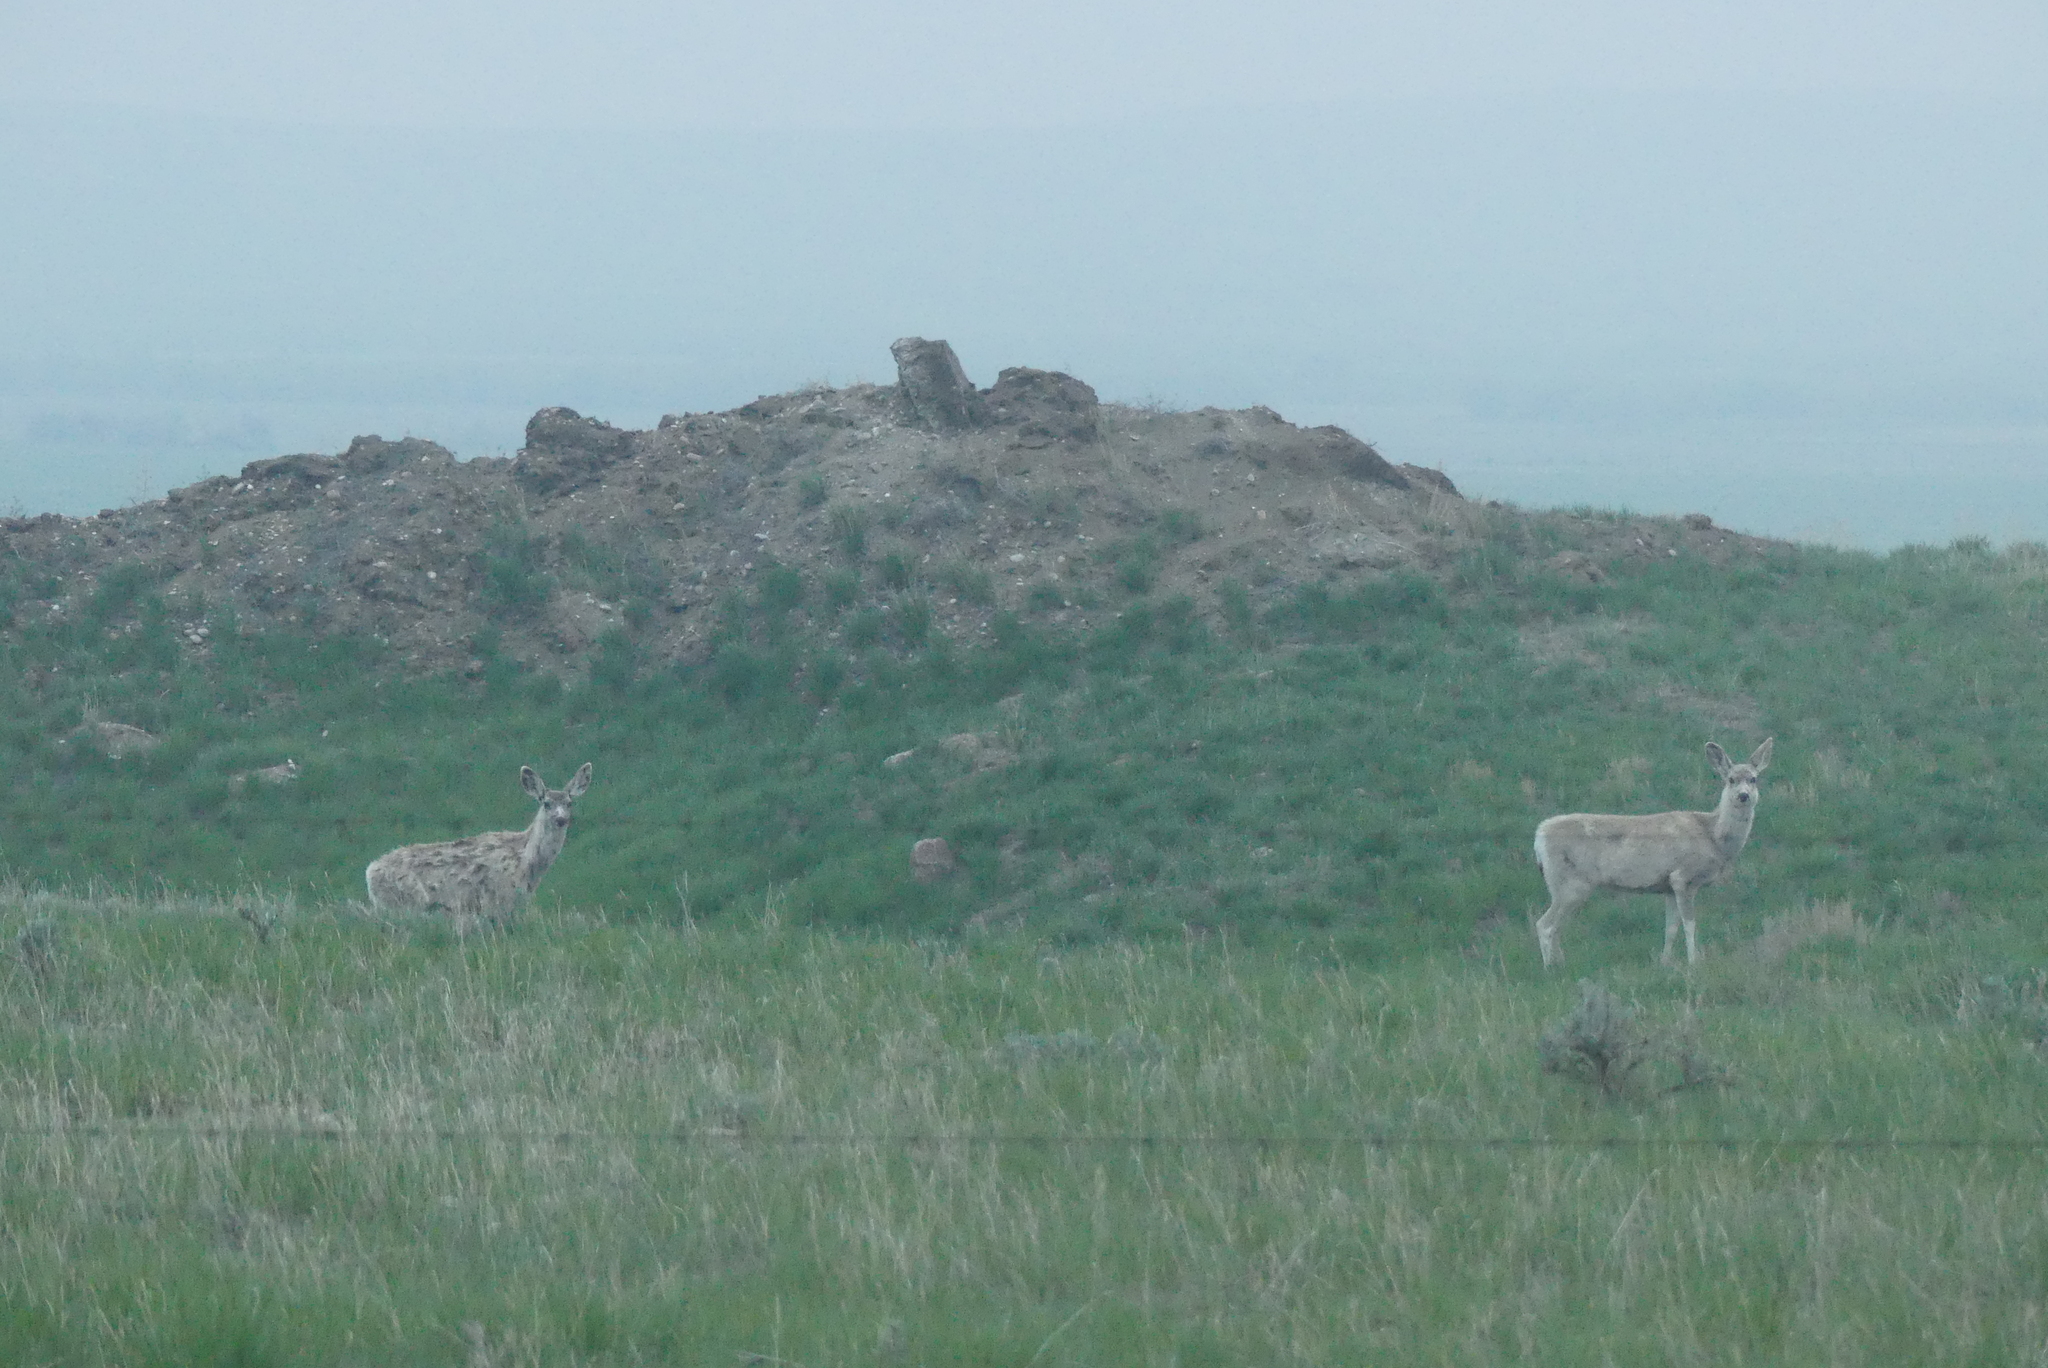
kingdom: Animalia
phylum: Chordata
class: Mammalia
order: Artiodactyla
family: Cervidae
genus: Odocoileus
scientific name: Odocoileus hemionus
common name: Mule deer
